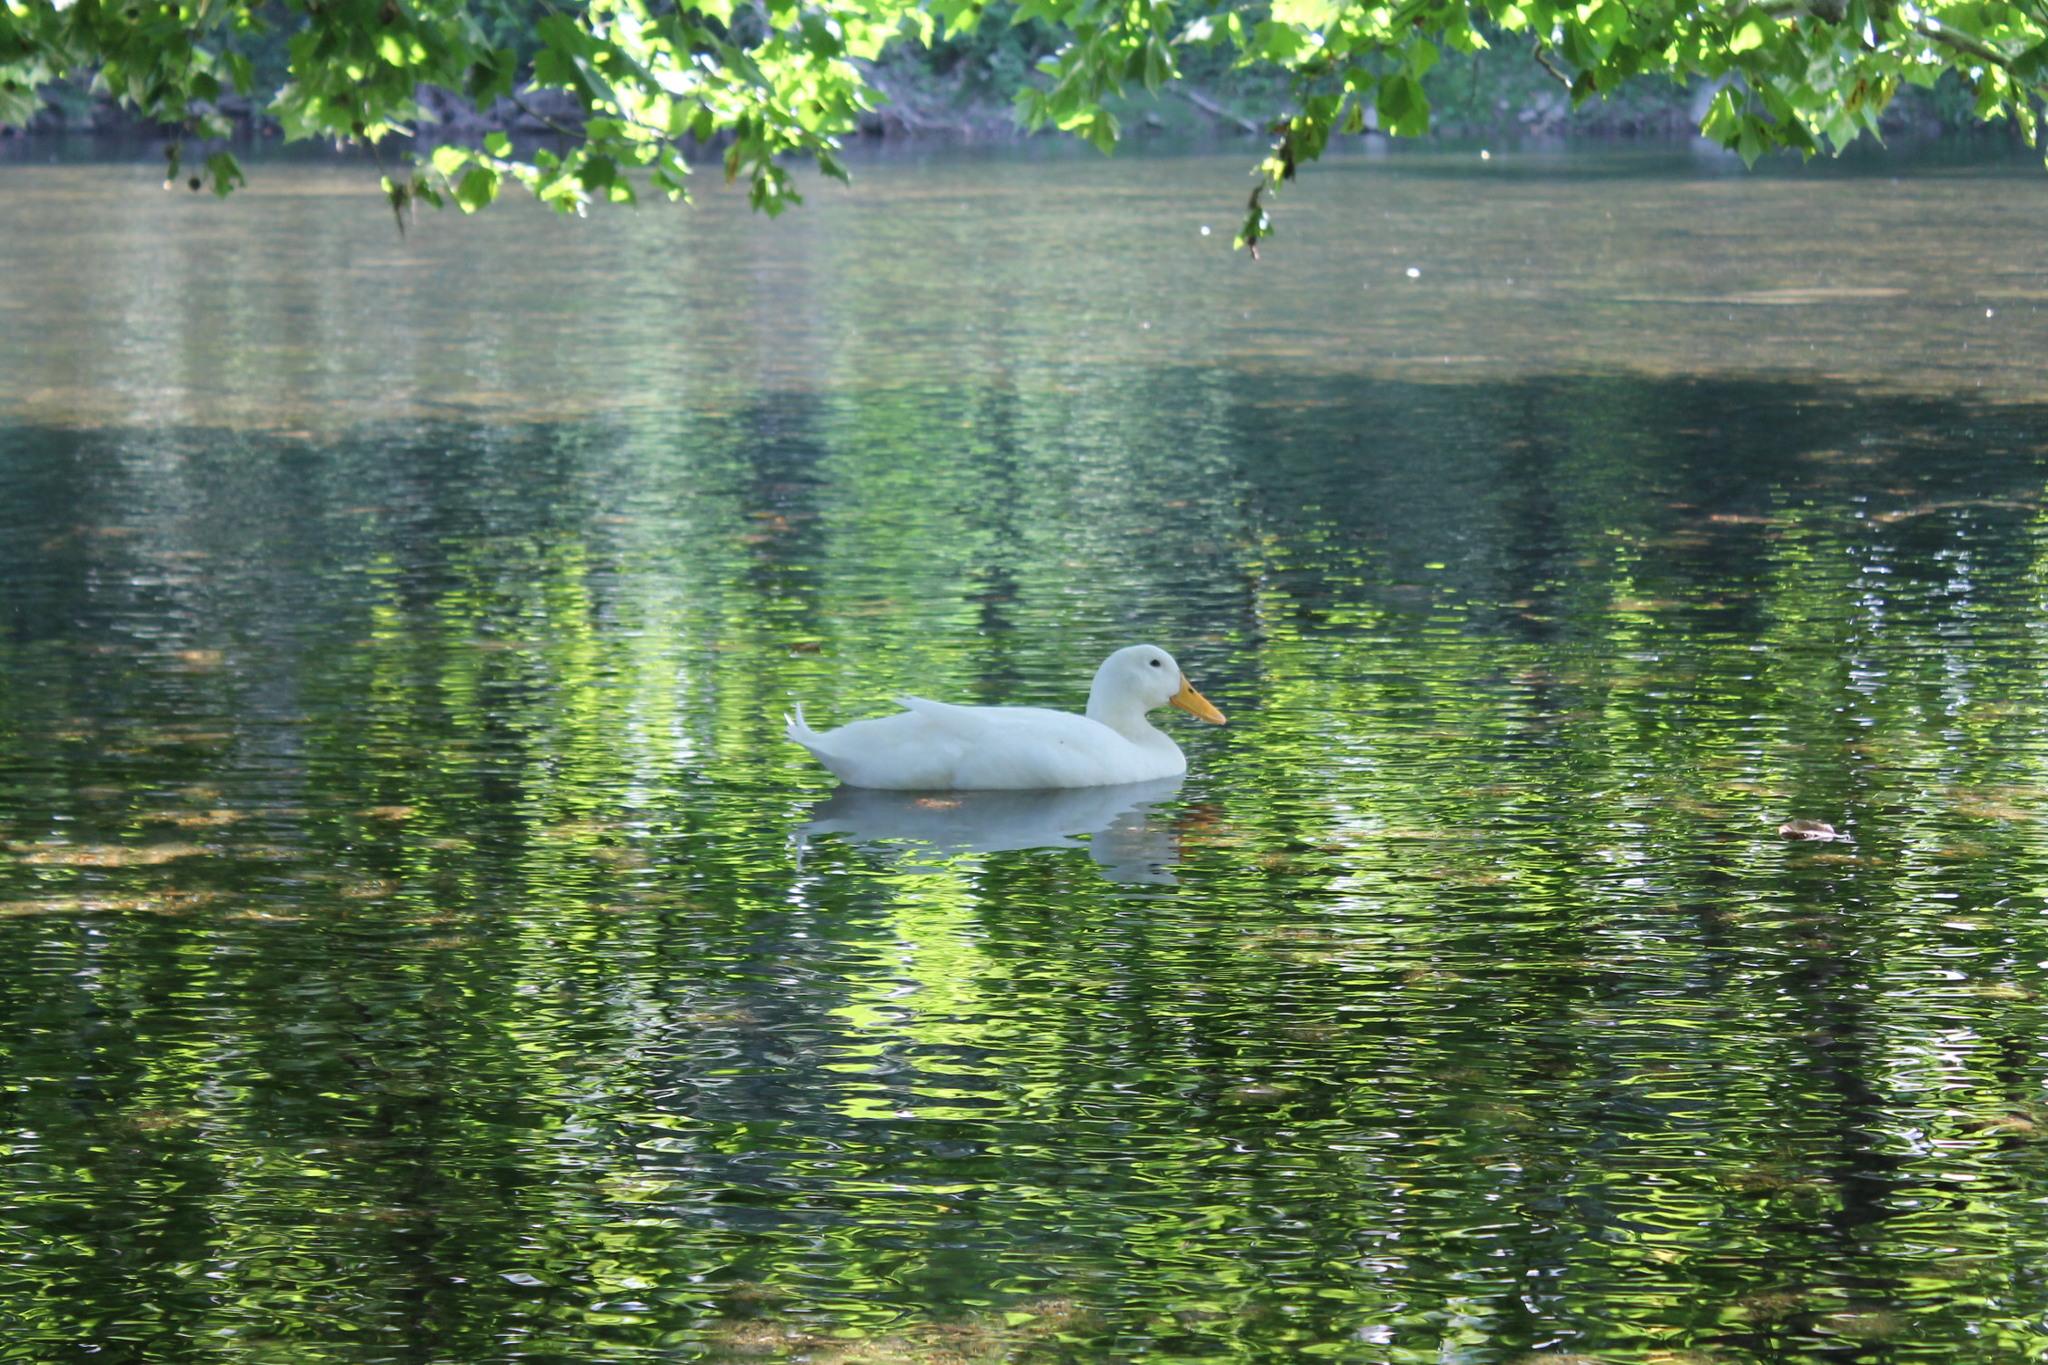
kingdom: Animalia
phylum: Chordata
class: Aves
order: Anseriformes
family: Anatidae
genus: Anas
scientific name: Anas platyrhynchos
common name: Mallard
